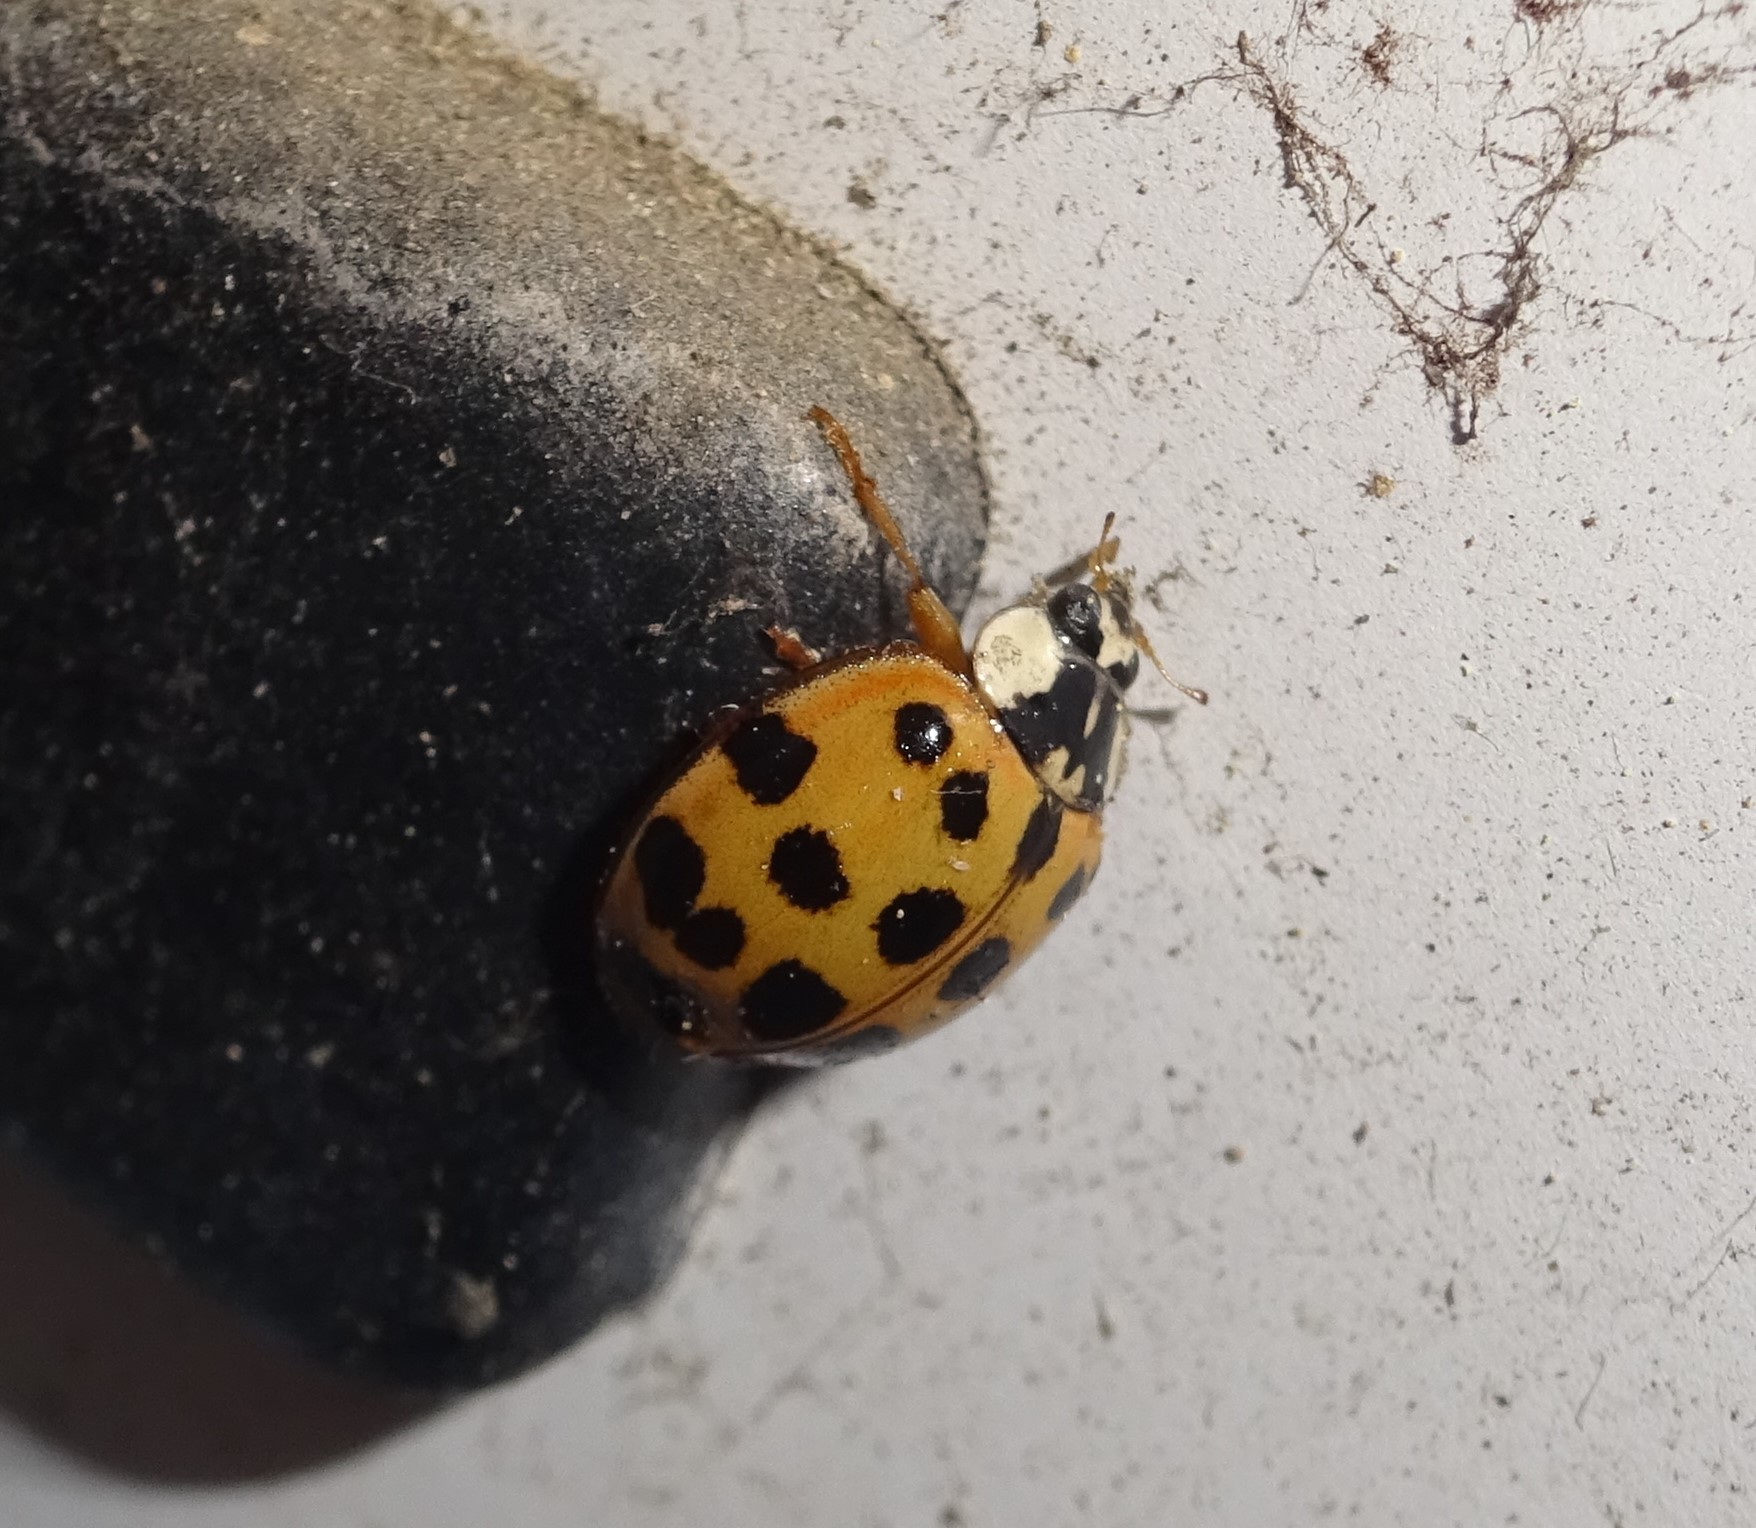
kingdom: Animalia
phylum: Arthropoda
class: Insecta
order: Coleoptera
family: Coccinellidae
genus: Harmonia
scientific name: Harmonia axyridis
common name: Harlequin ladybird
